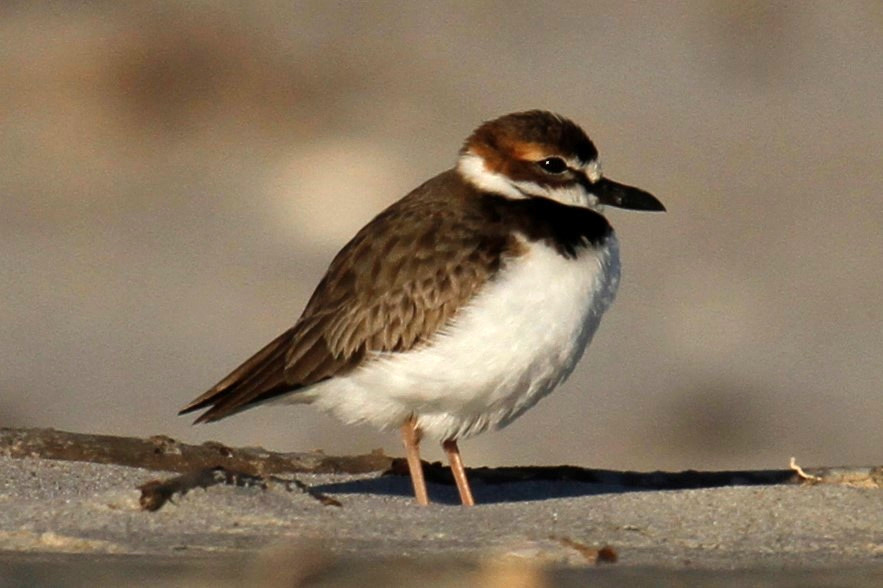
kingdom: Animalia
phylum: Chordata
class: Aves
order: Charadriiformes
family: Charadriidae
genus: Anarhynchus
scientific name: Anarhynchus
